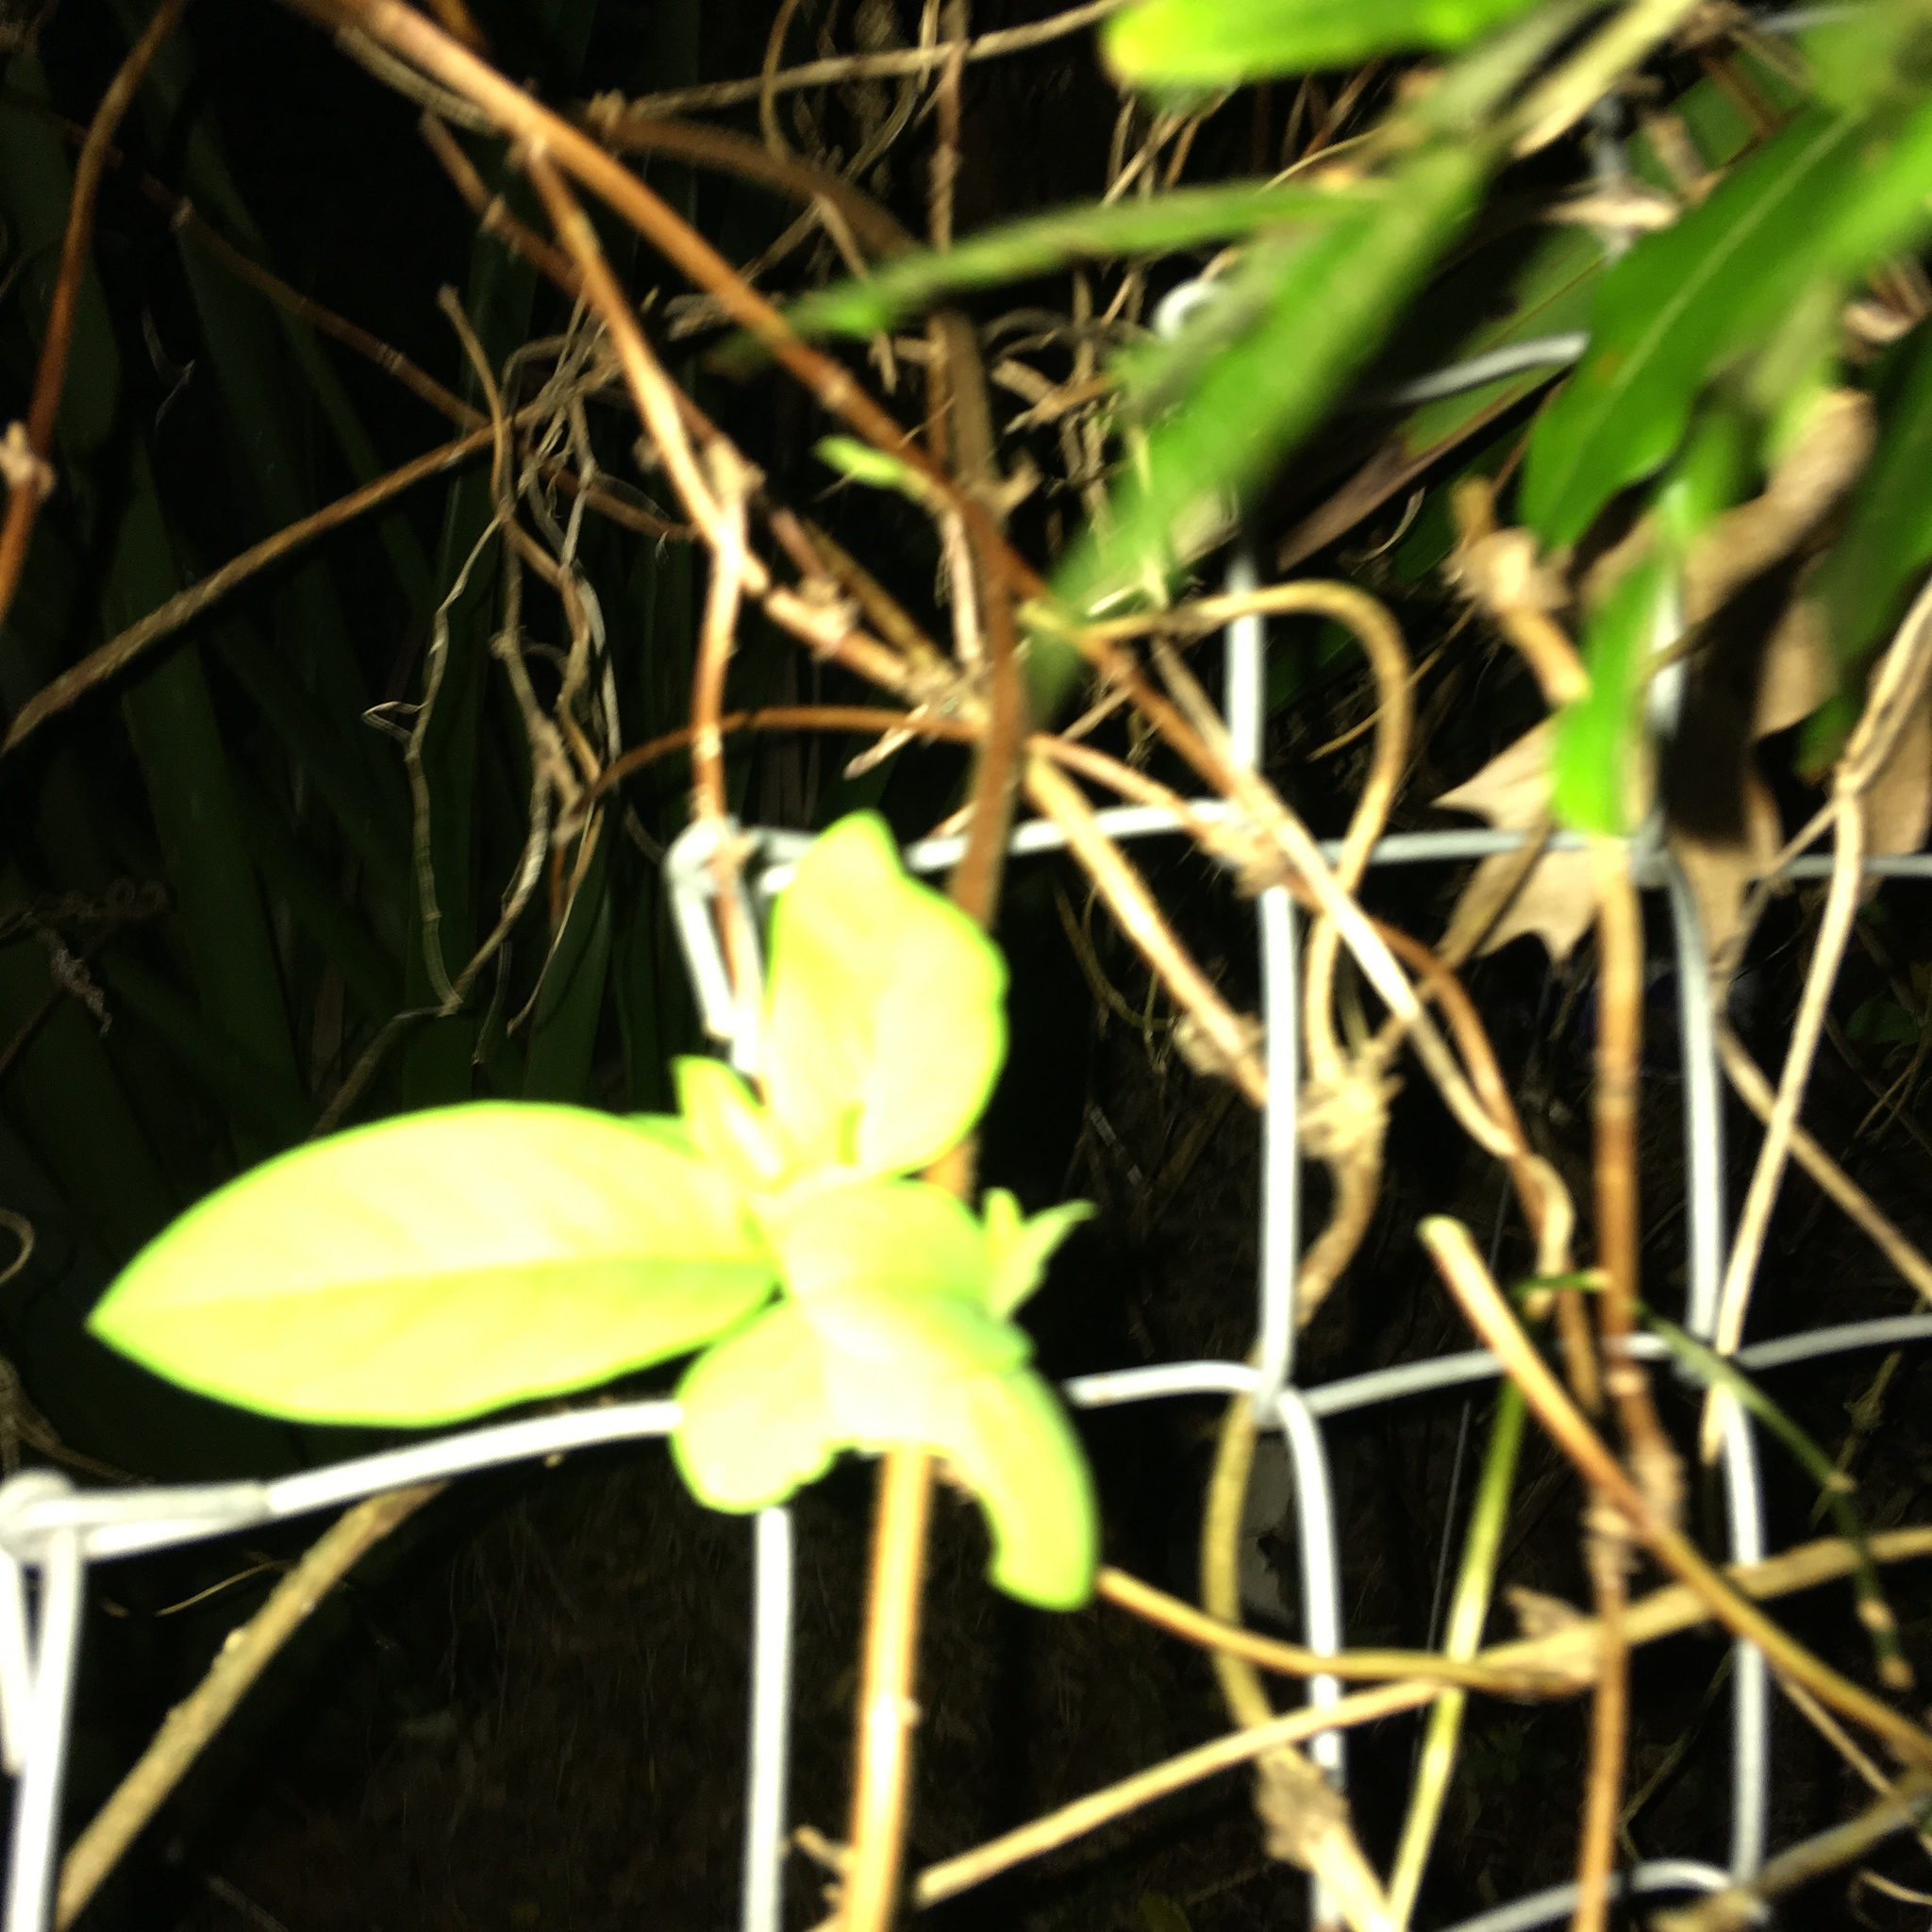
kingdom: Plantae
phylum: Tracheophyta
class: Magnoliopsida
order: Dipsacales
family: Caprifoliaceae
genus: Lonicera
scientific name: Lonicera japonica
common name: Japanese honeysuckle
